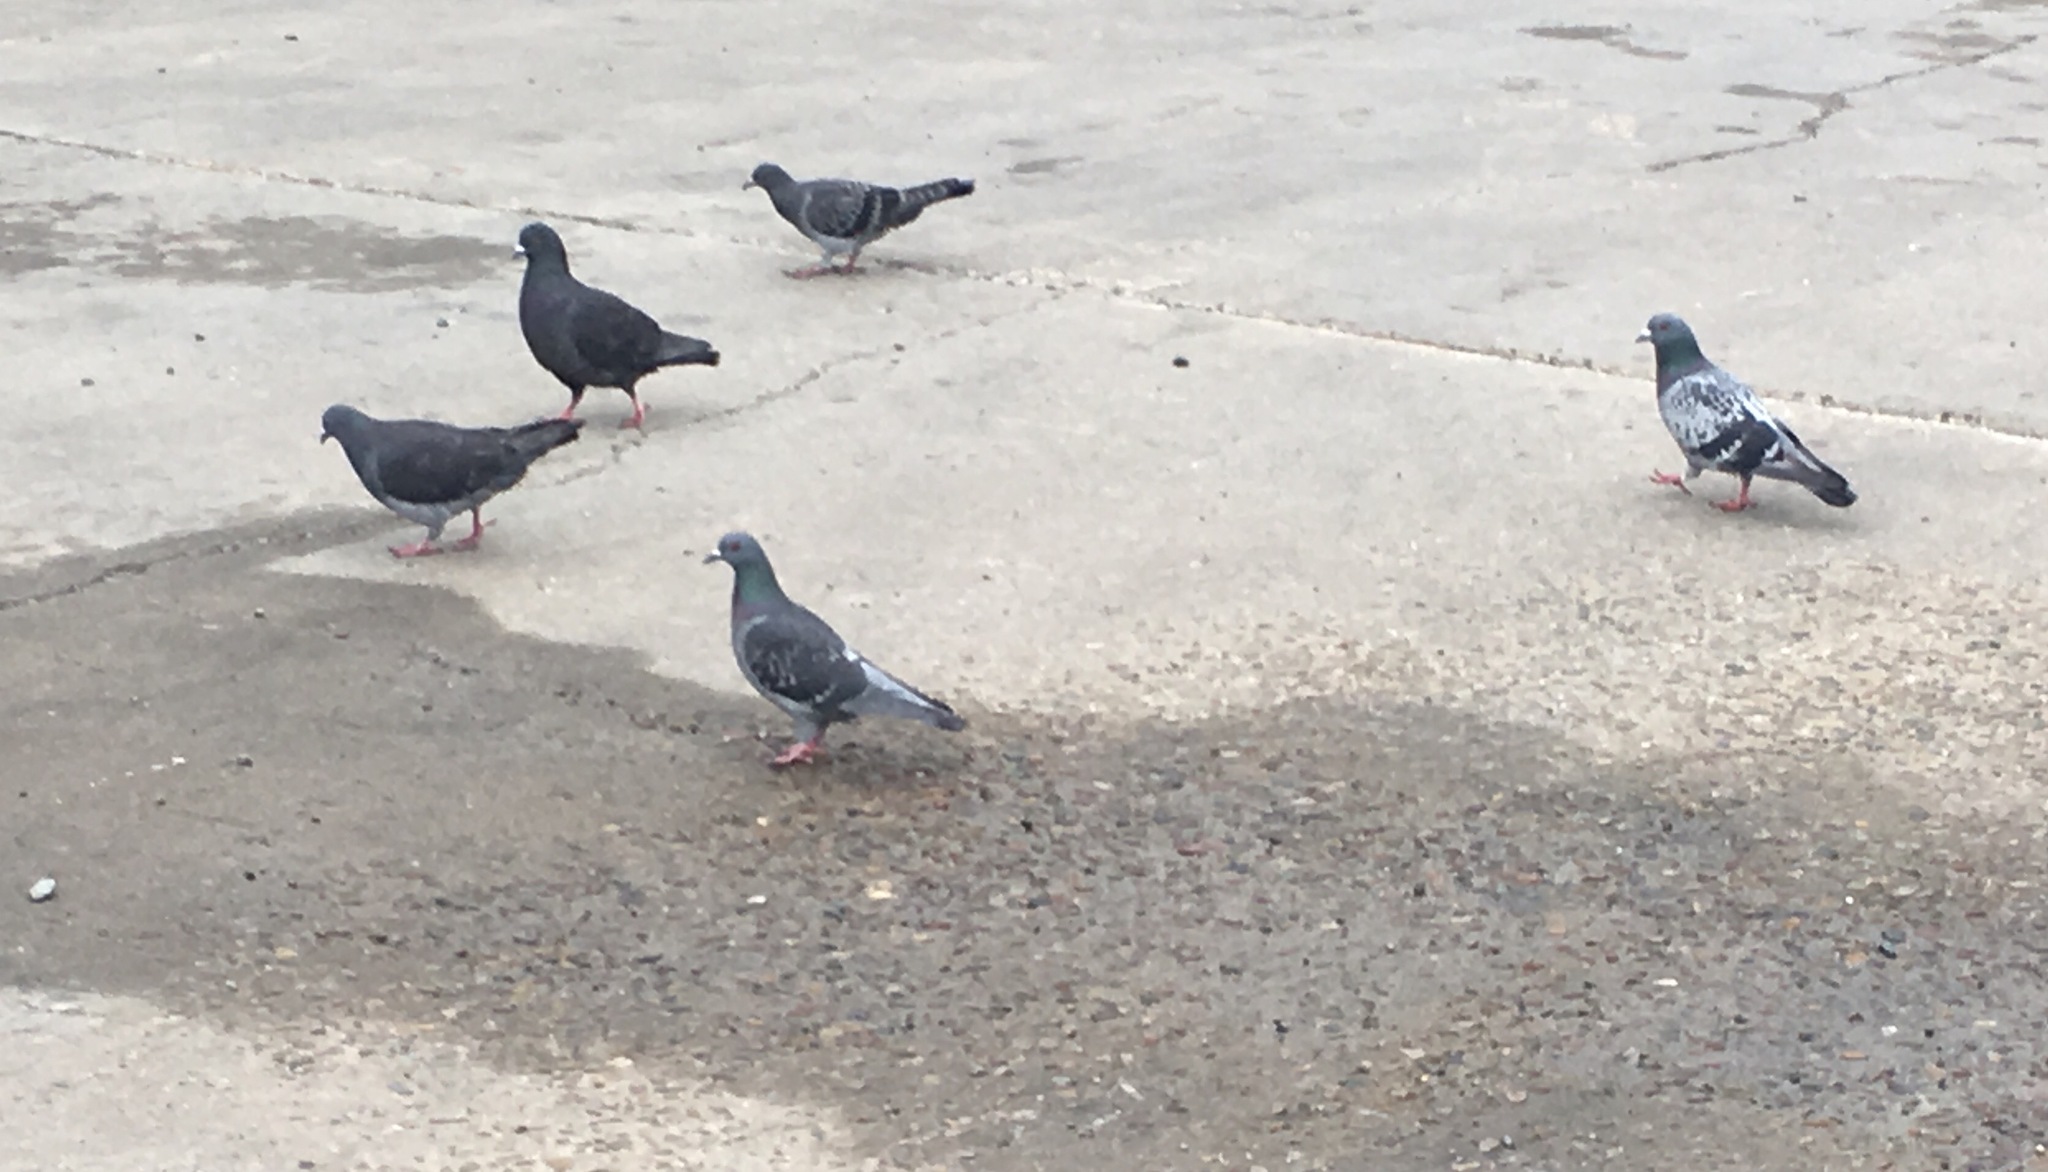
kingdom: Animalia
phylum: Chordata
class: Aves
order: Columbiformes
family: Columbidae
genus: Columba
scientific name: Columba livia
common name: Rock pigeon
